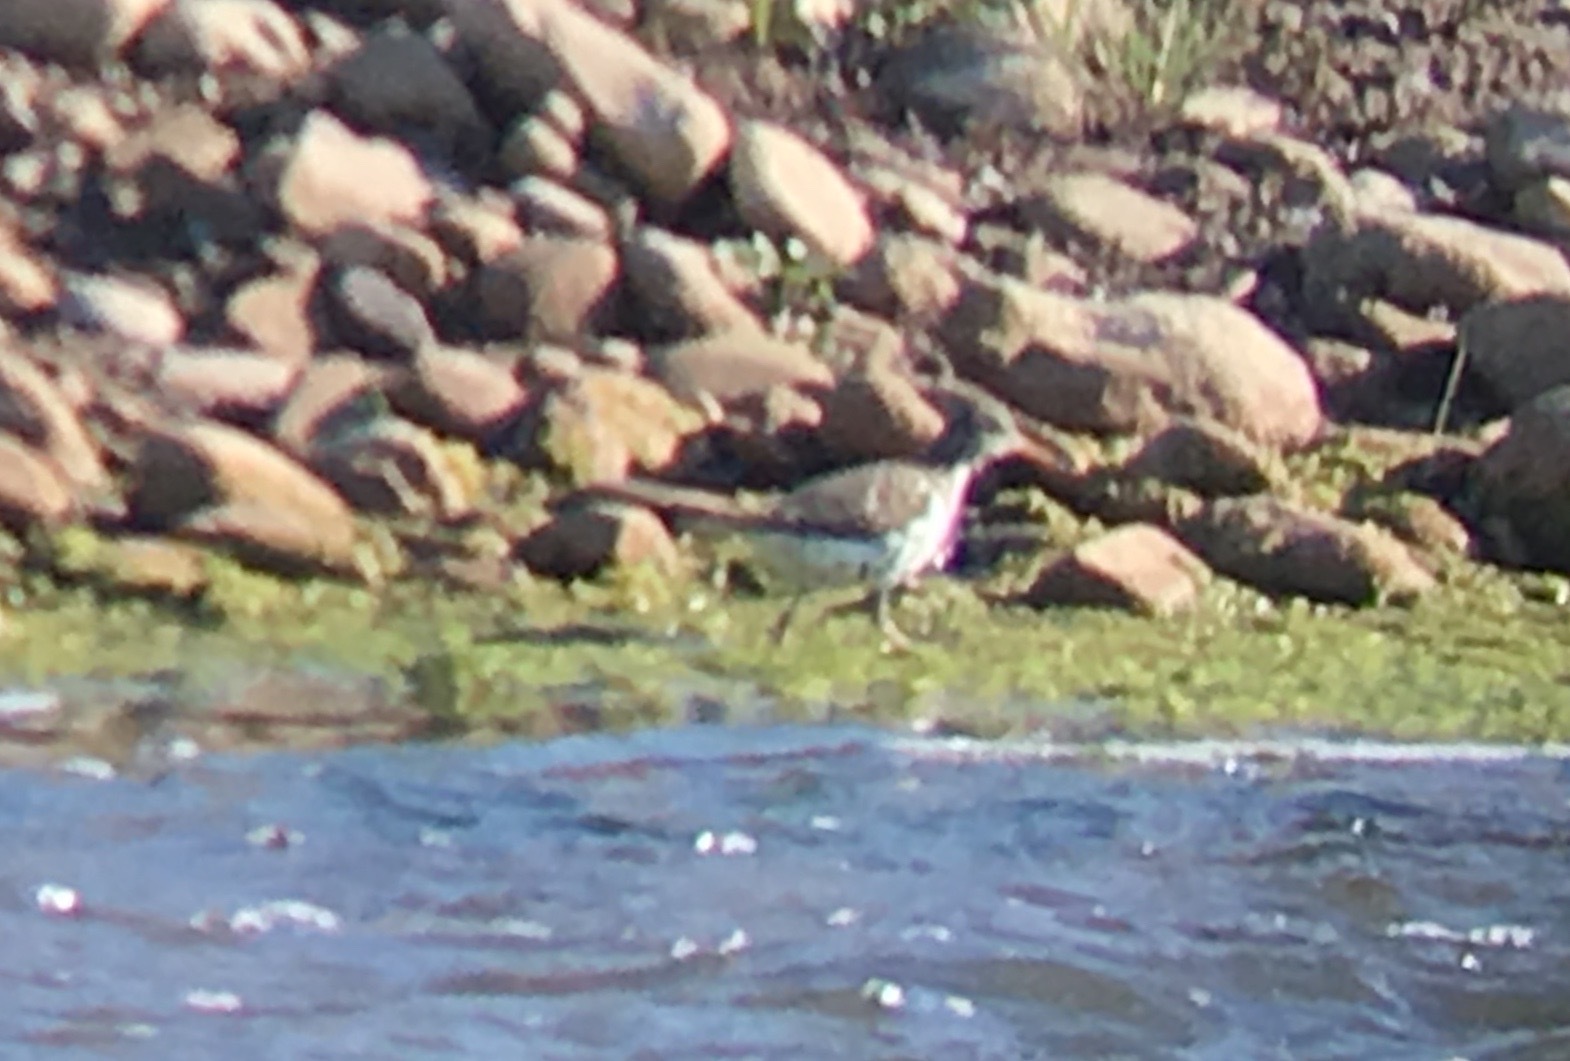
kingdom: Animalia
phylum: Chordata
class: Aves
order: Charadriiformes
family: Scolopacidae
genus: Actitis
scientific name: Actitis macularius
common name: Spotted sandpiper
